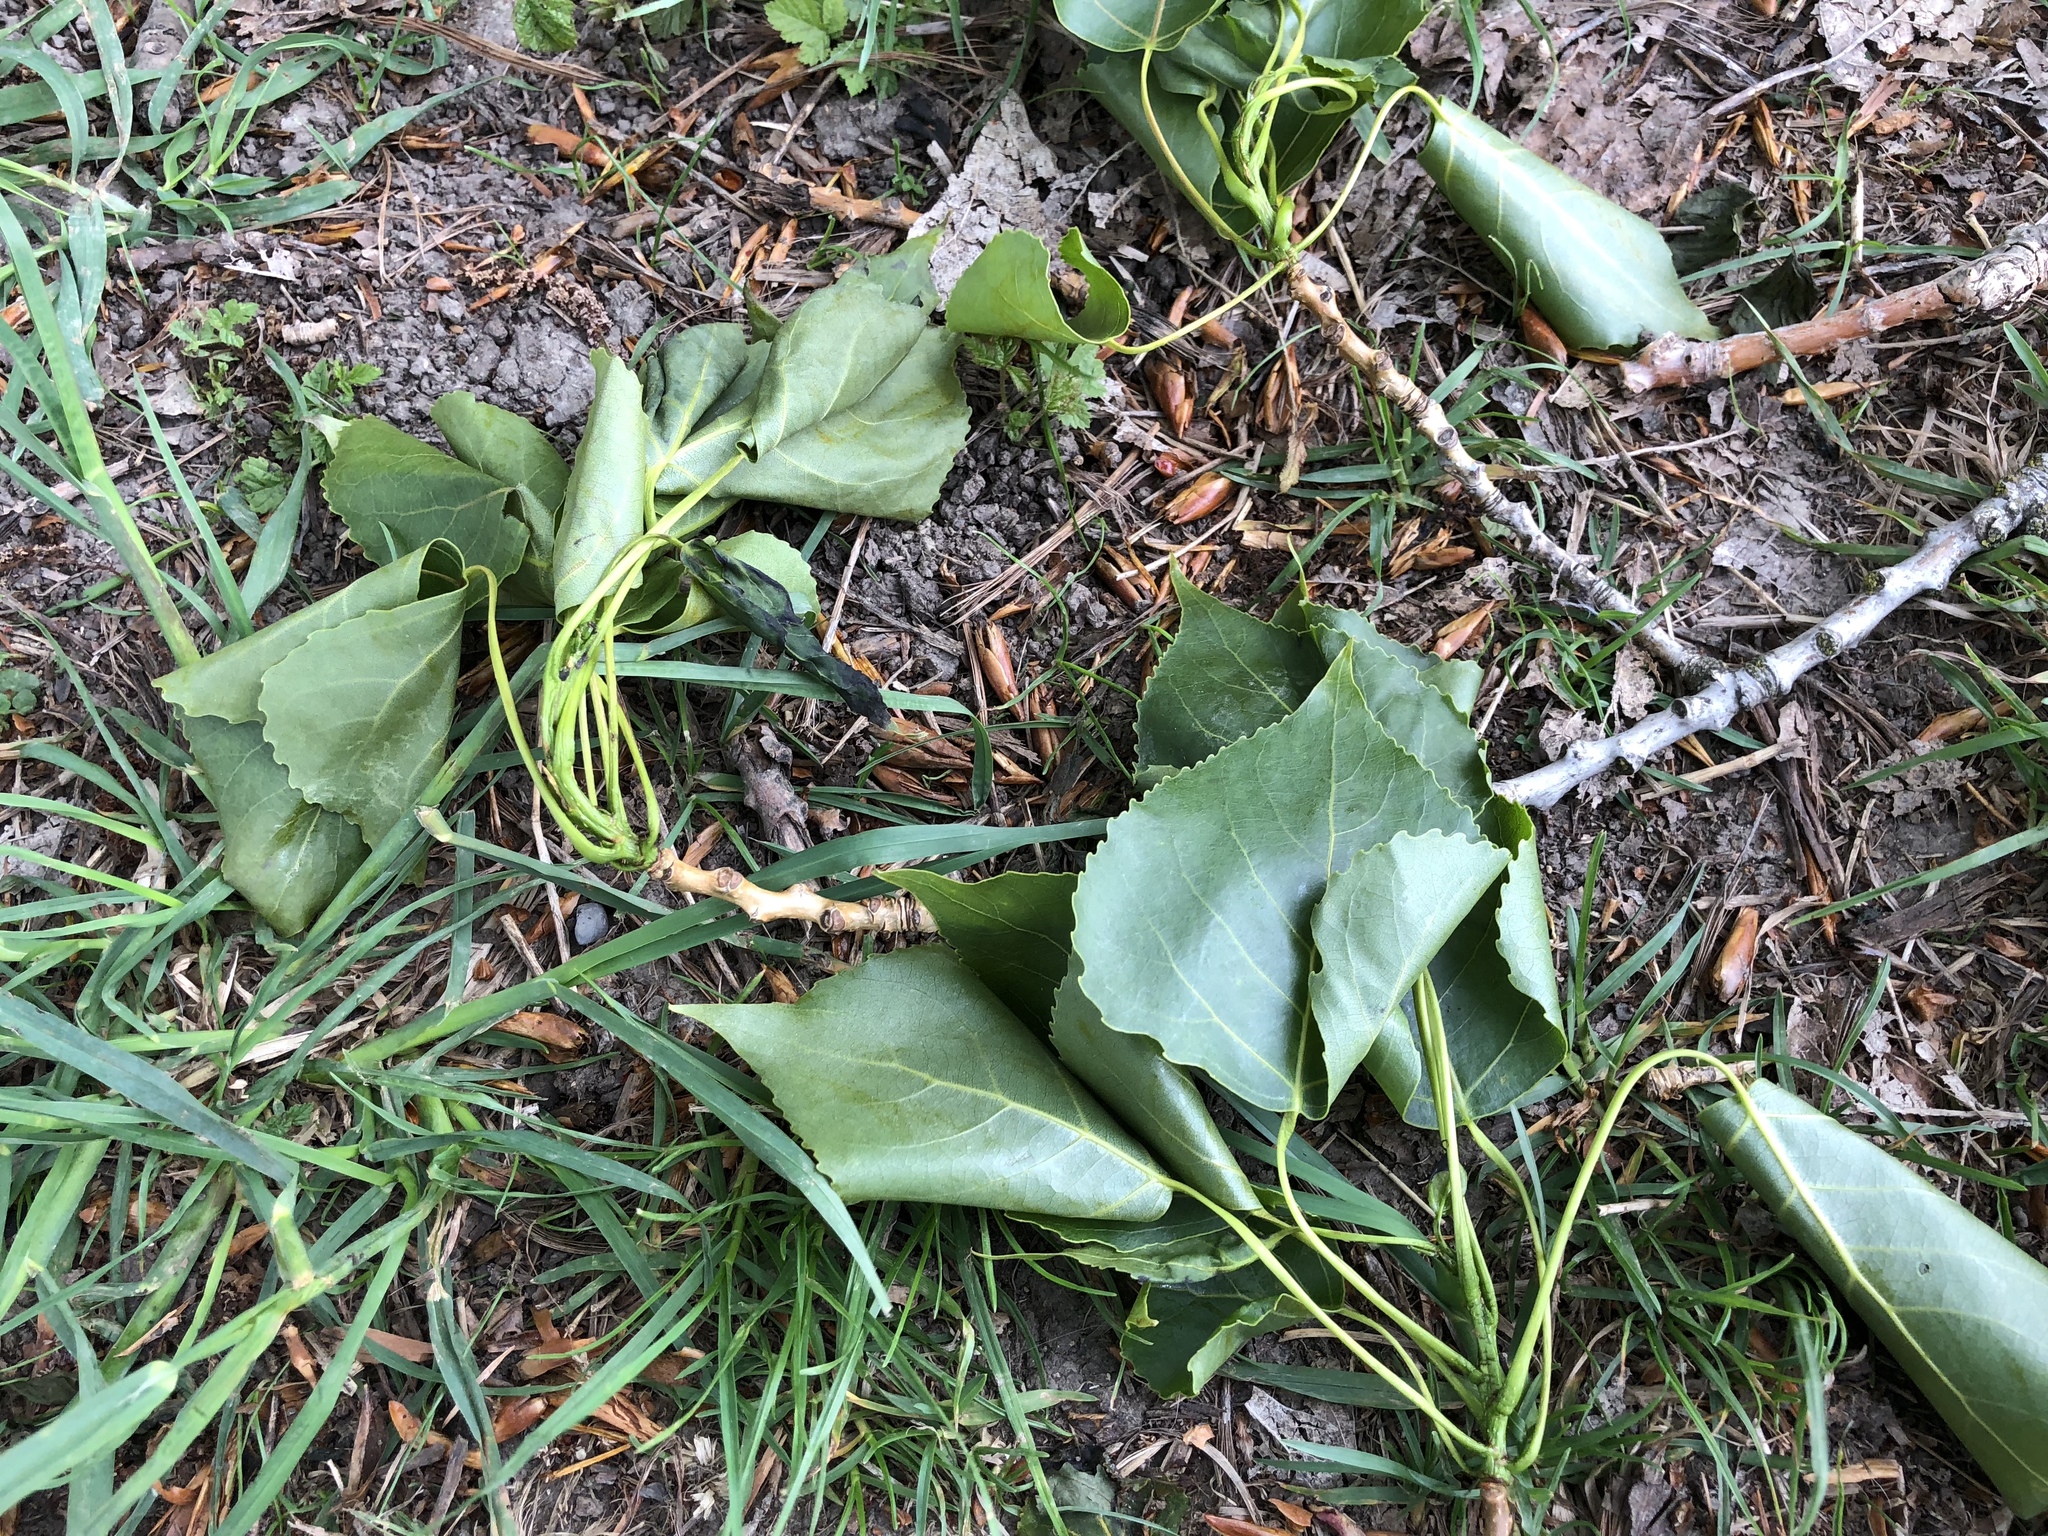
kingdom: Plantae
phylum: Tracheophyta
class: Magnoliopsida
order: Malpighiales
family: Salicaceae
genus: Populus
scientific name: Populus canadensis
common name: Carolina poplar
